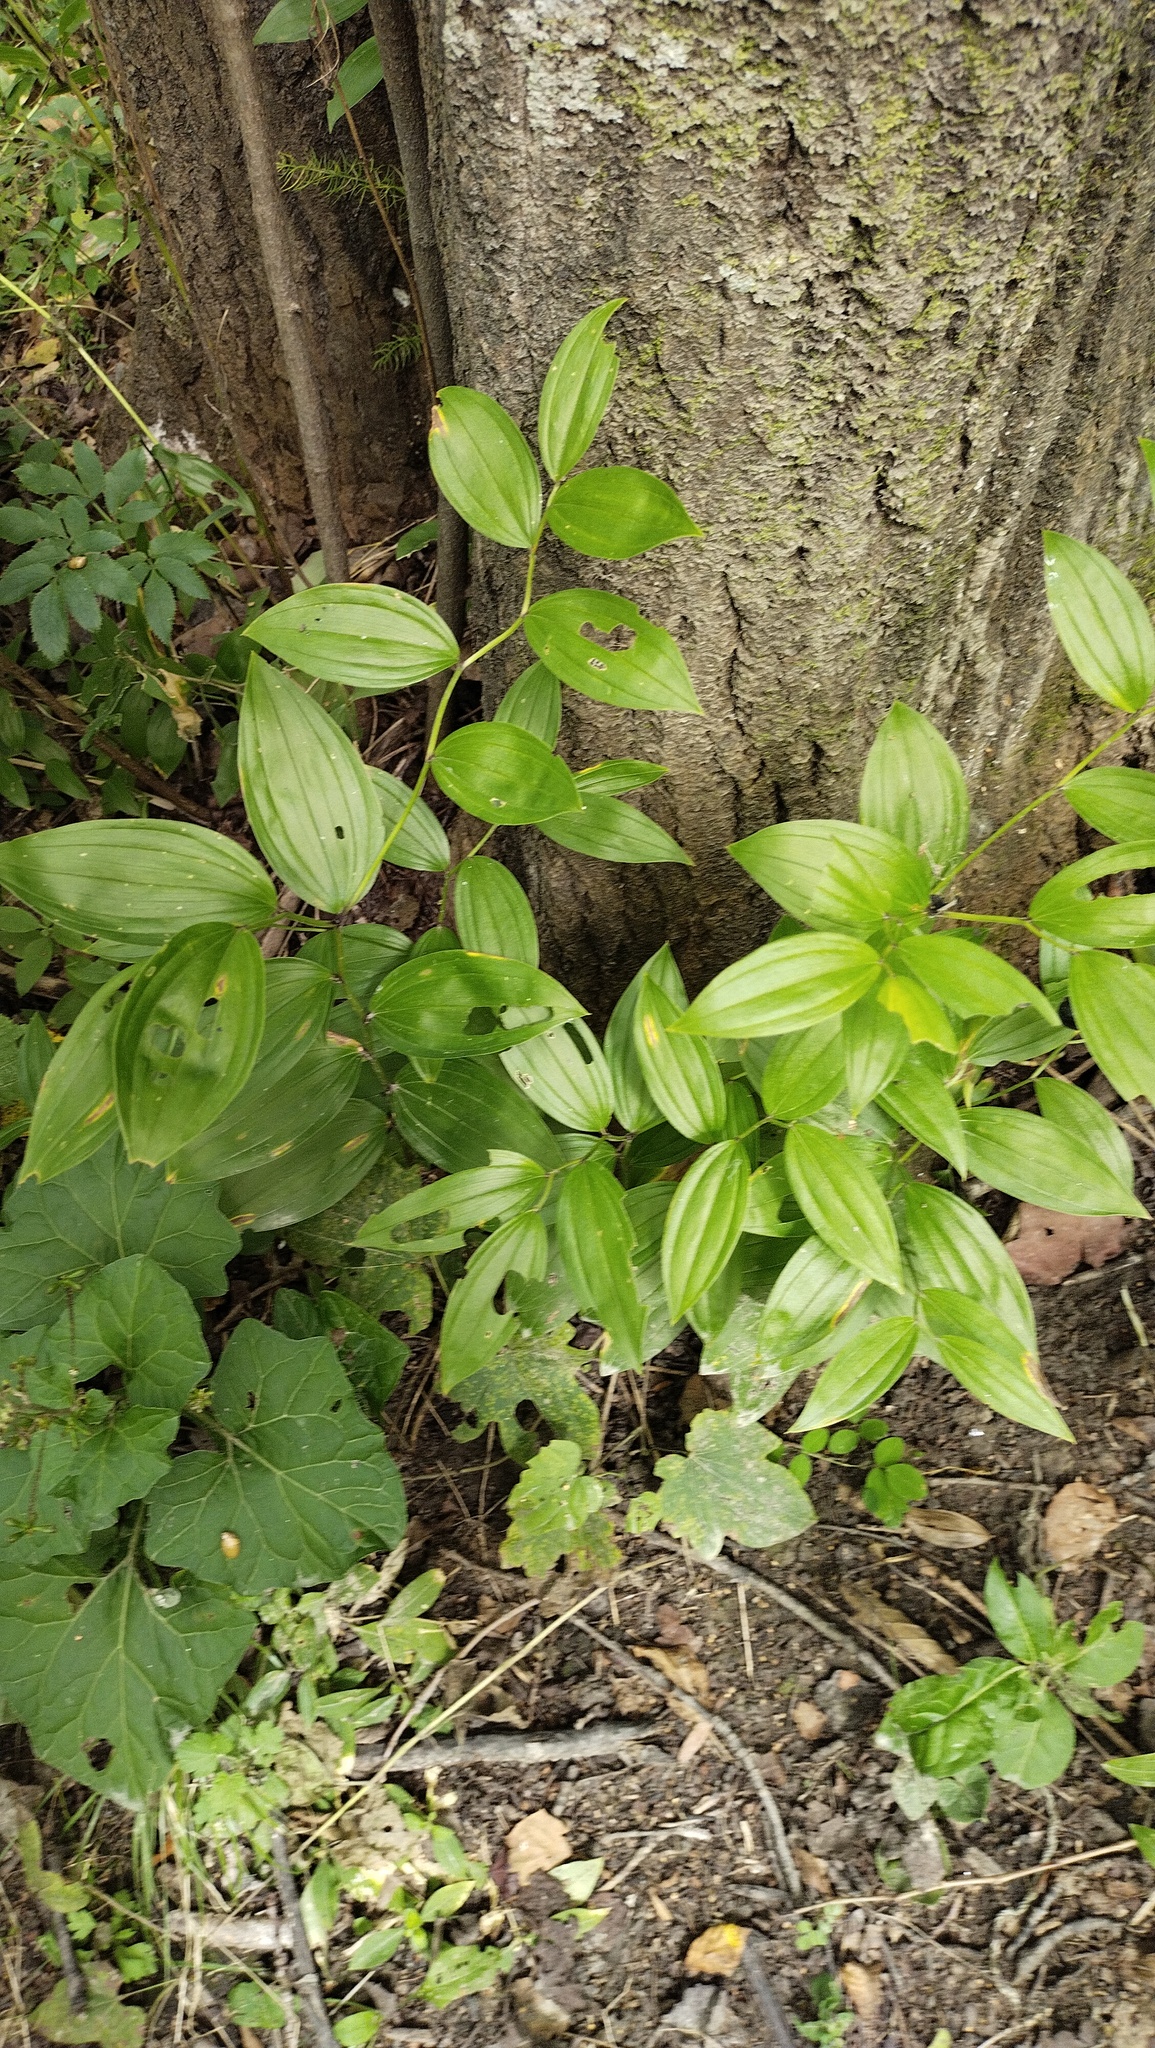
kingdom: Plantae
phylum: Tracheophyta
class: Liliopsida
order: Liliales
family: Colchicaceae
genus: Disporum
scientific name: Disporum viridescens
